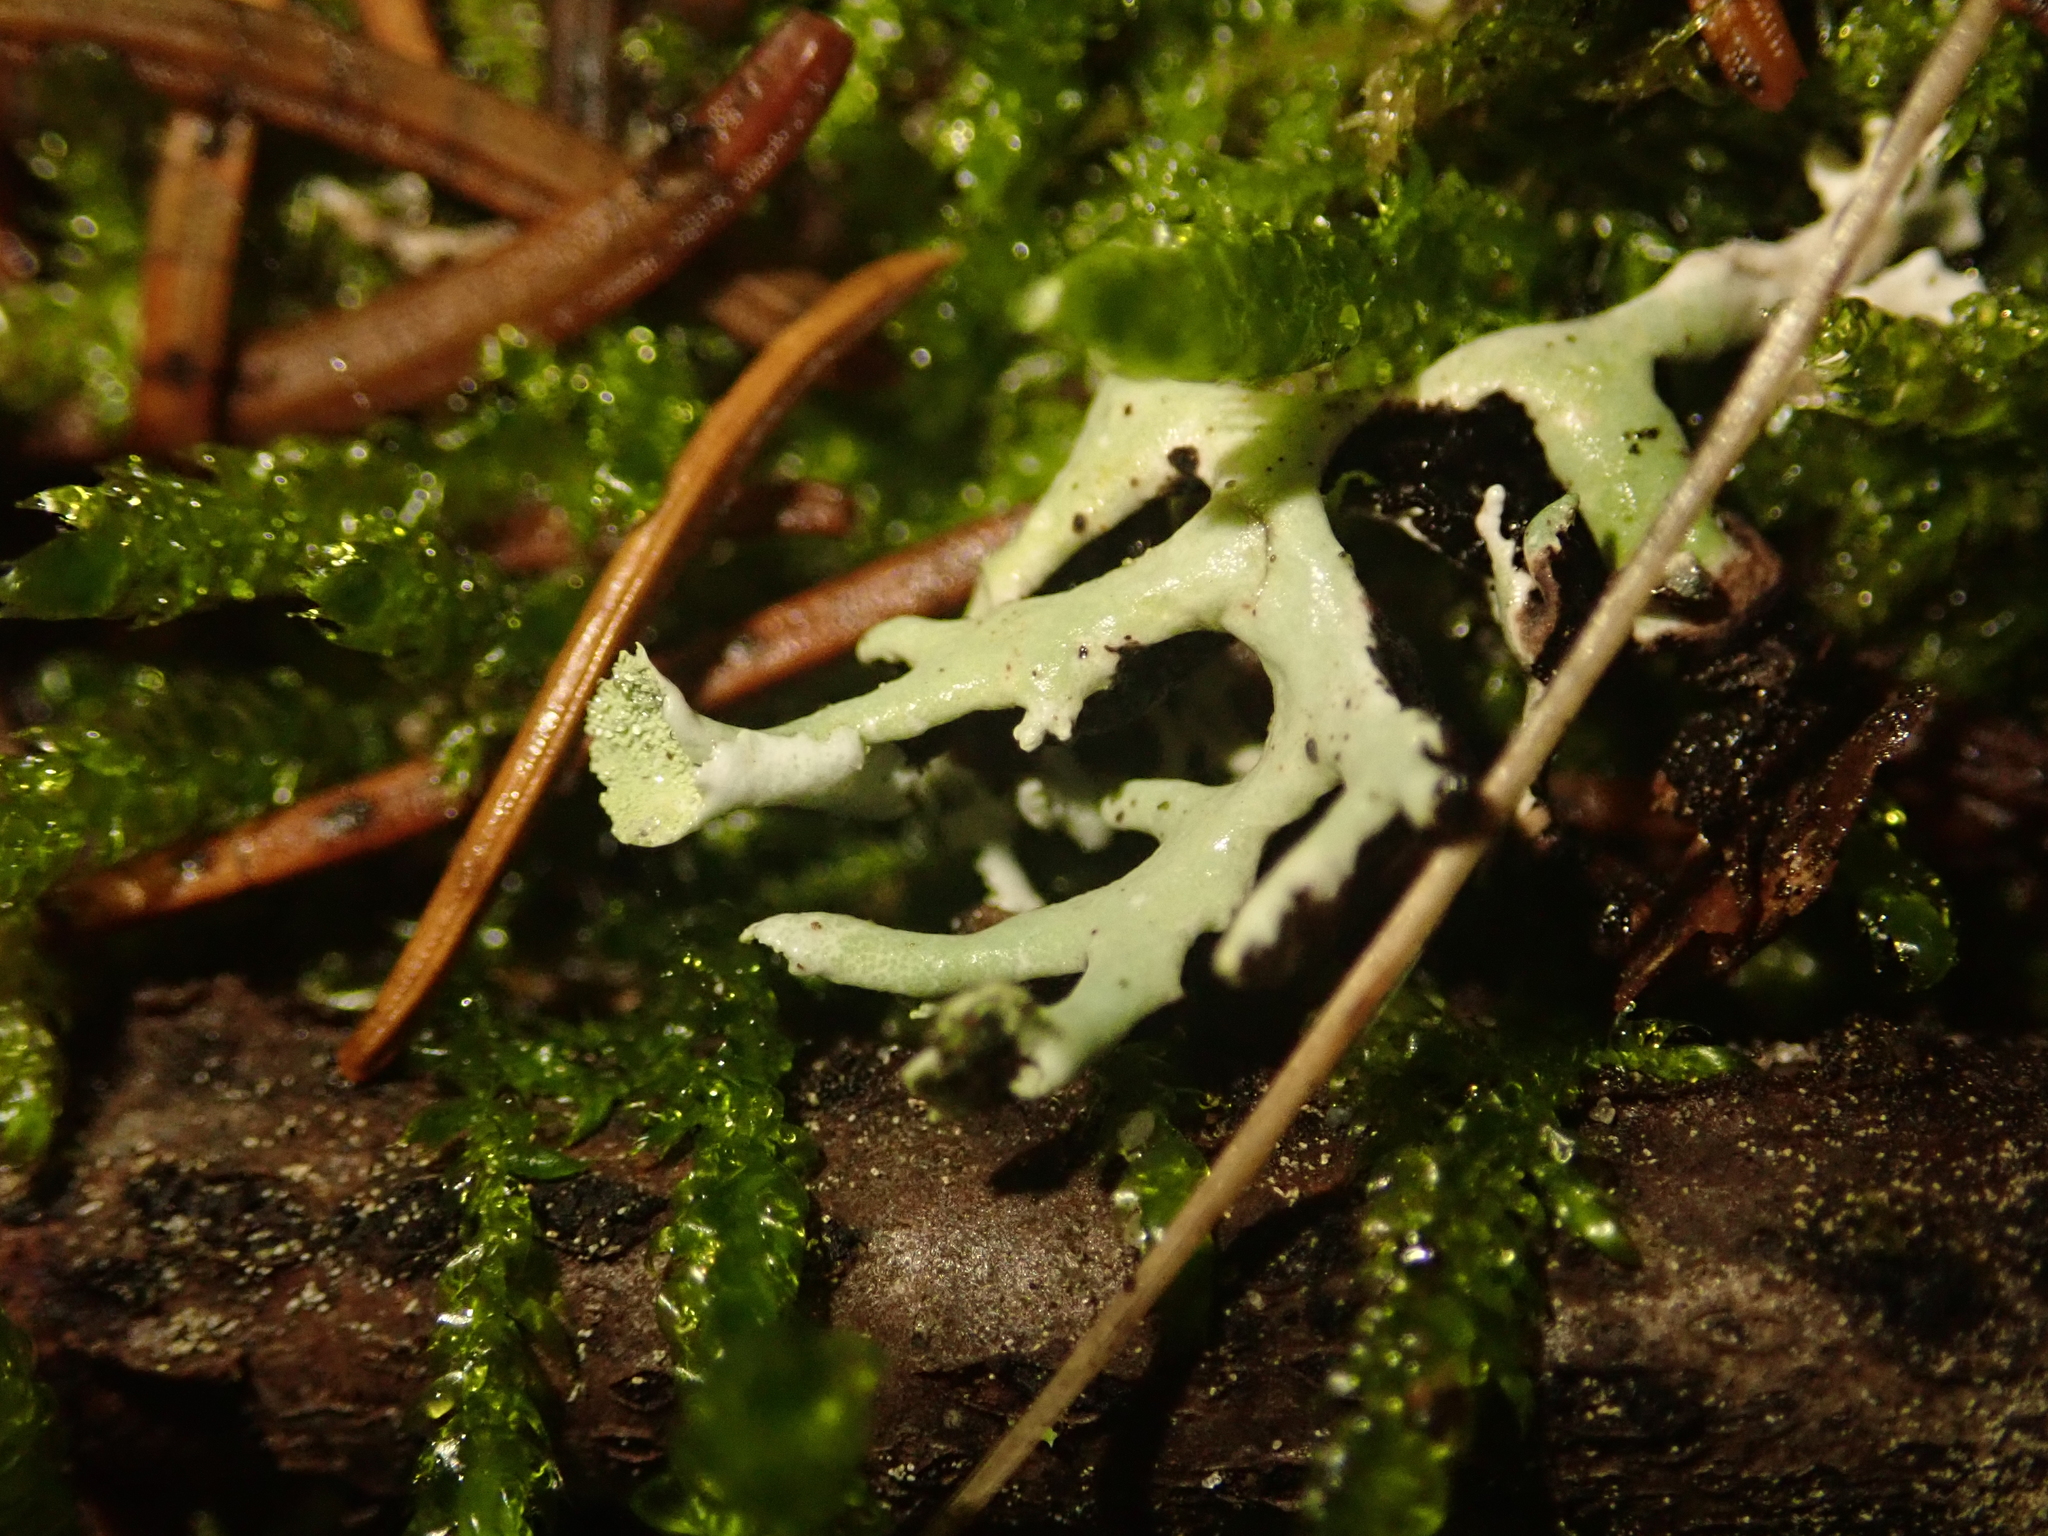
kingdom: Fungi
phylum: Ascomycota
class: Lecanoromycetes
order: Lecanorales
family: Parmeliaceae
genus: Hypogymnia
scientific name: Hypogymnia physodes
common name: Dark crottle
